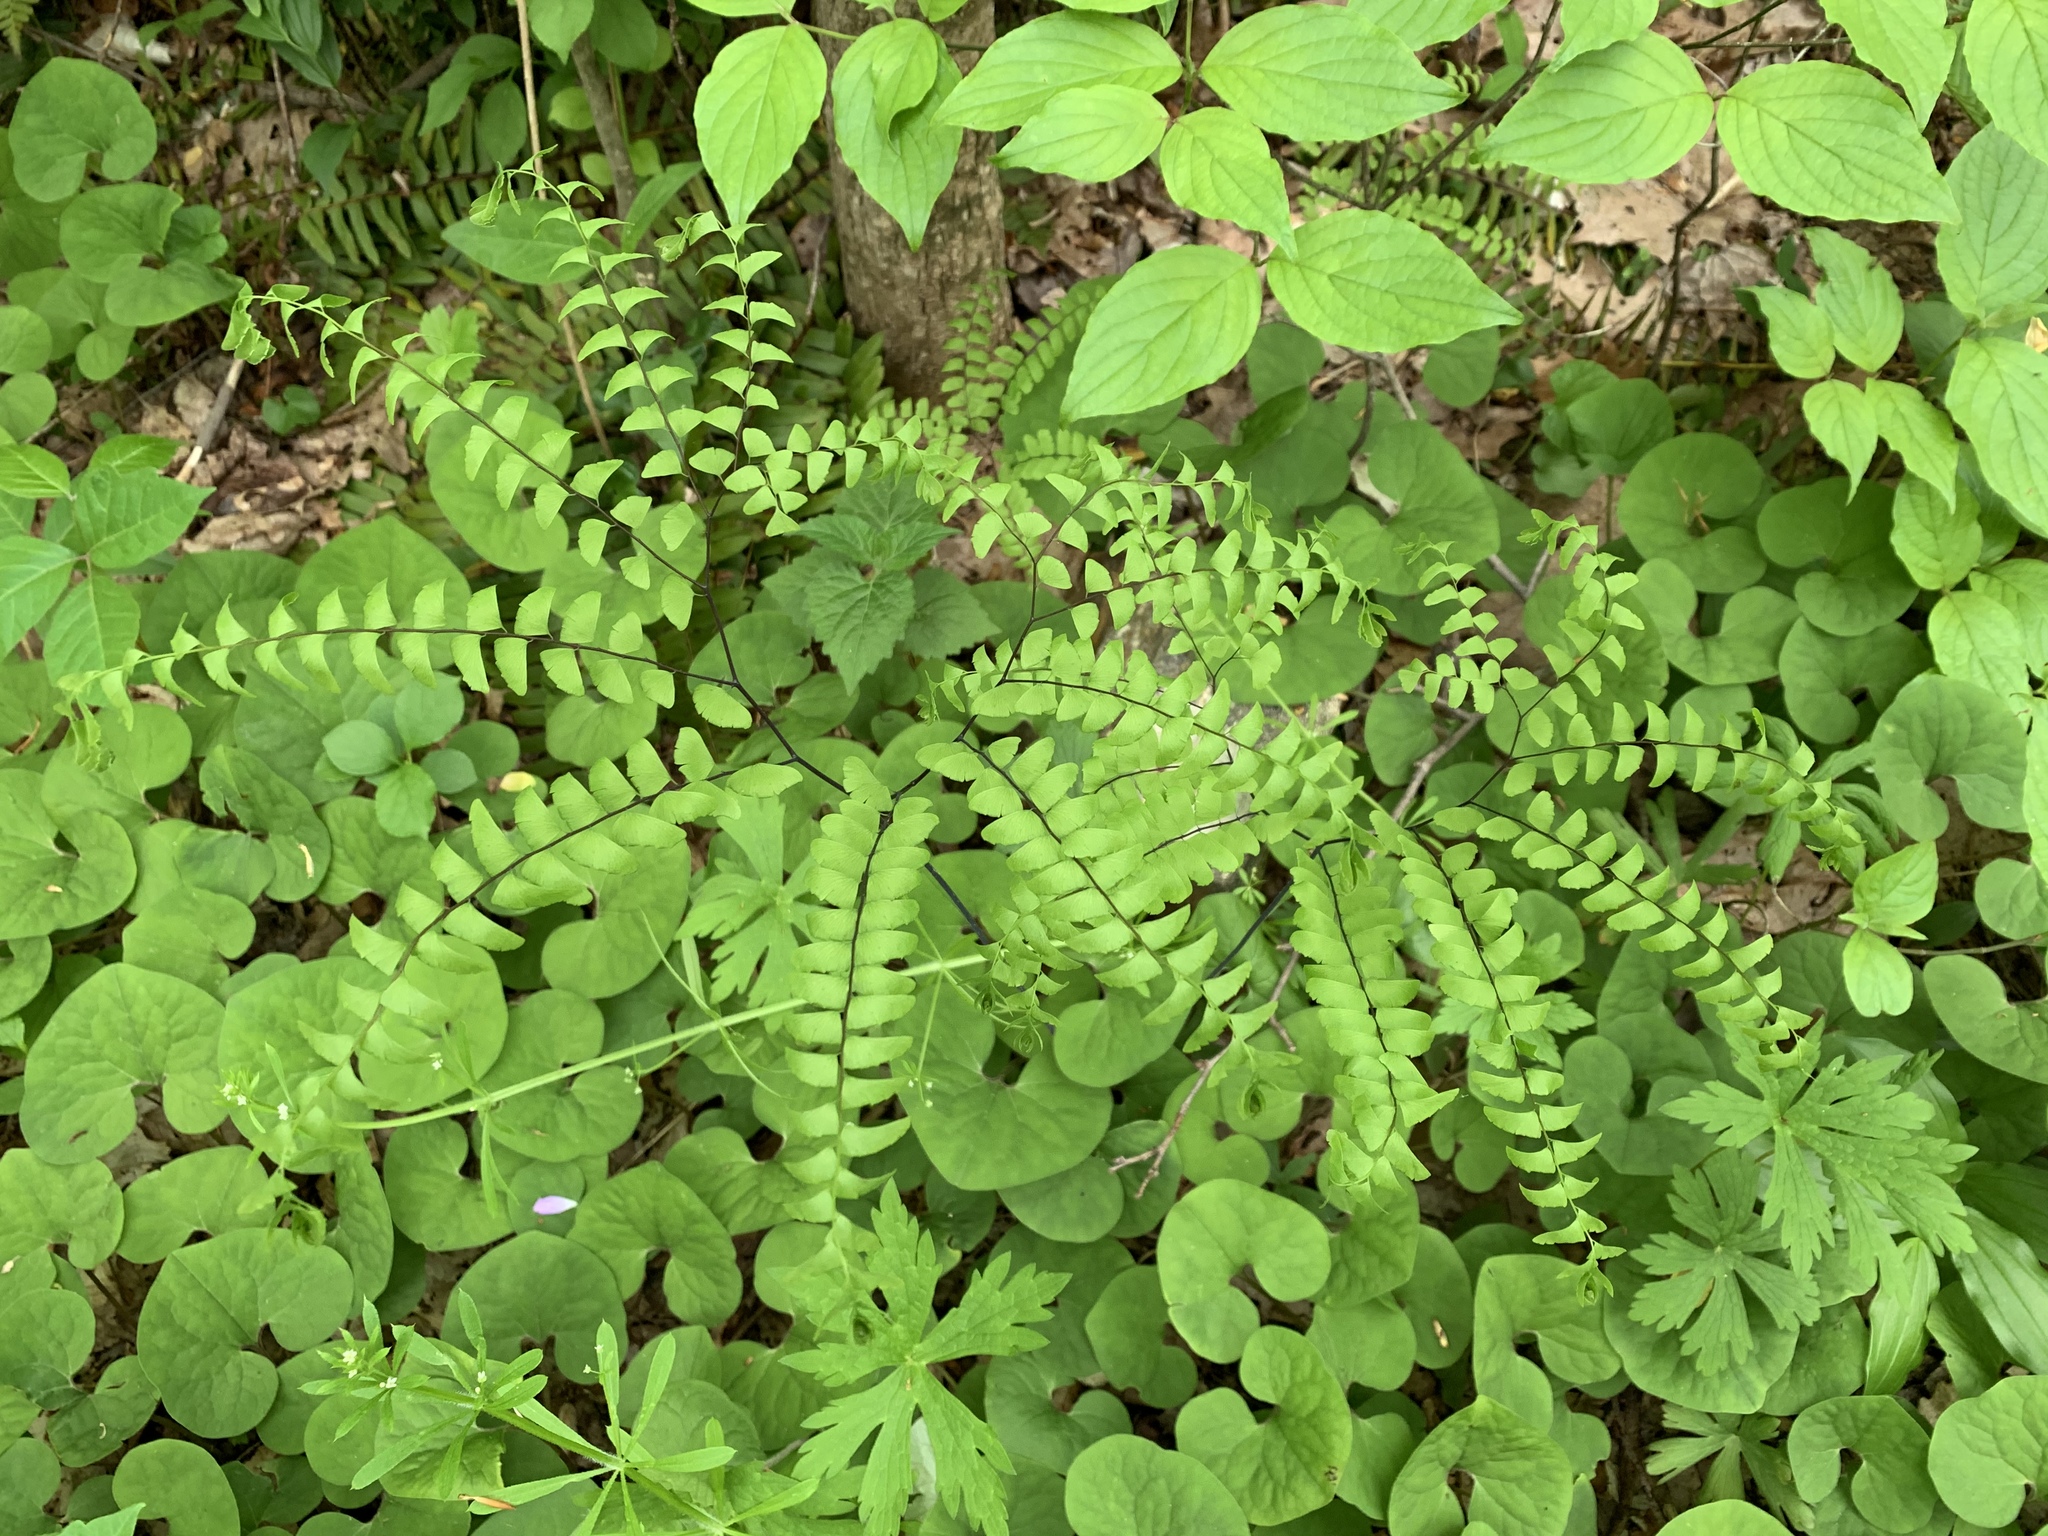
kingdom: Plantae
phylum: Tracheophyta
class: Polypodiopsida
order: Polypodiales
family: Pteridaceae
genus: Adiantum
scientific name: Adiantum pedatum
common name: Five-finger fern
